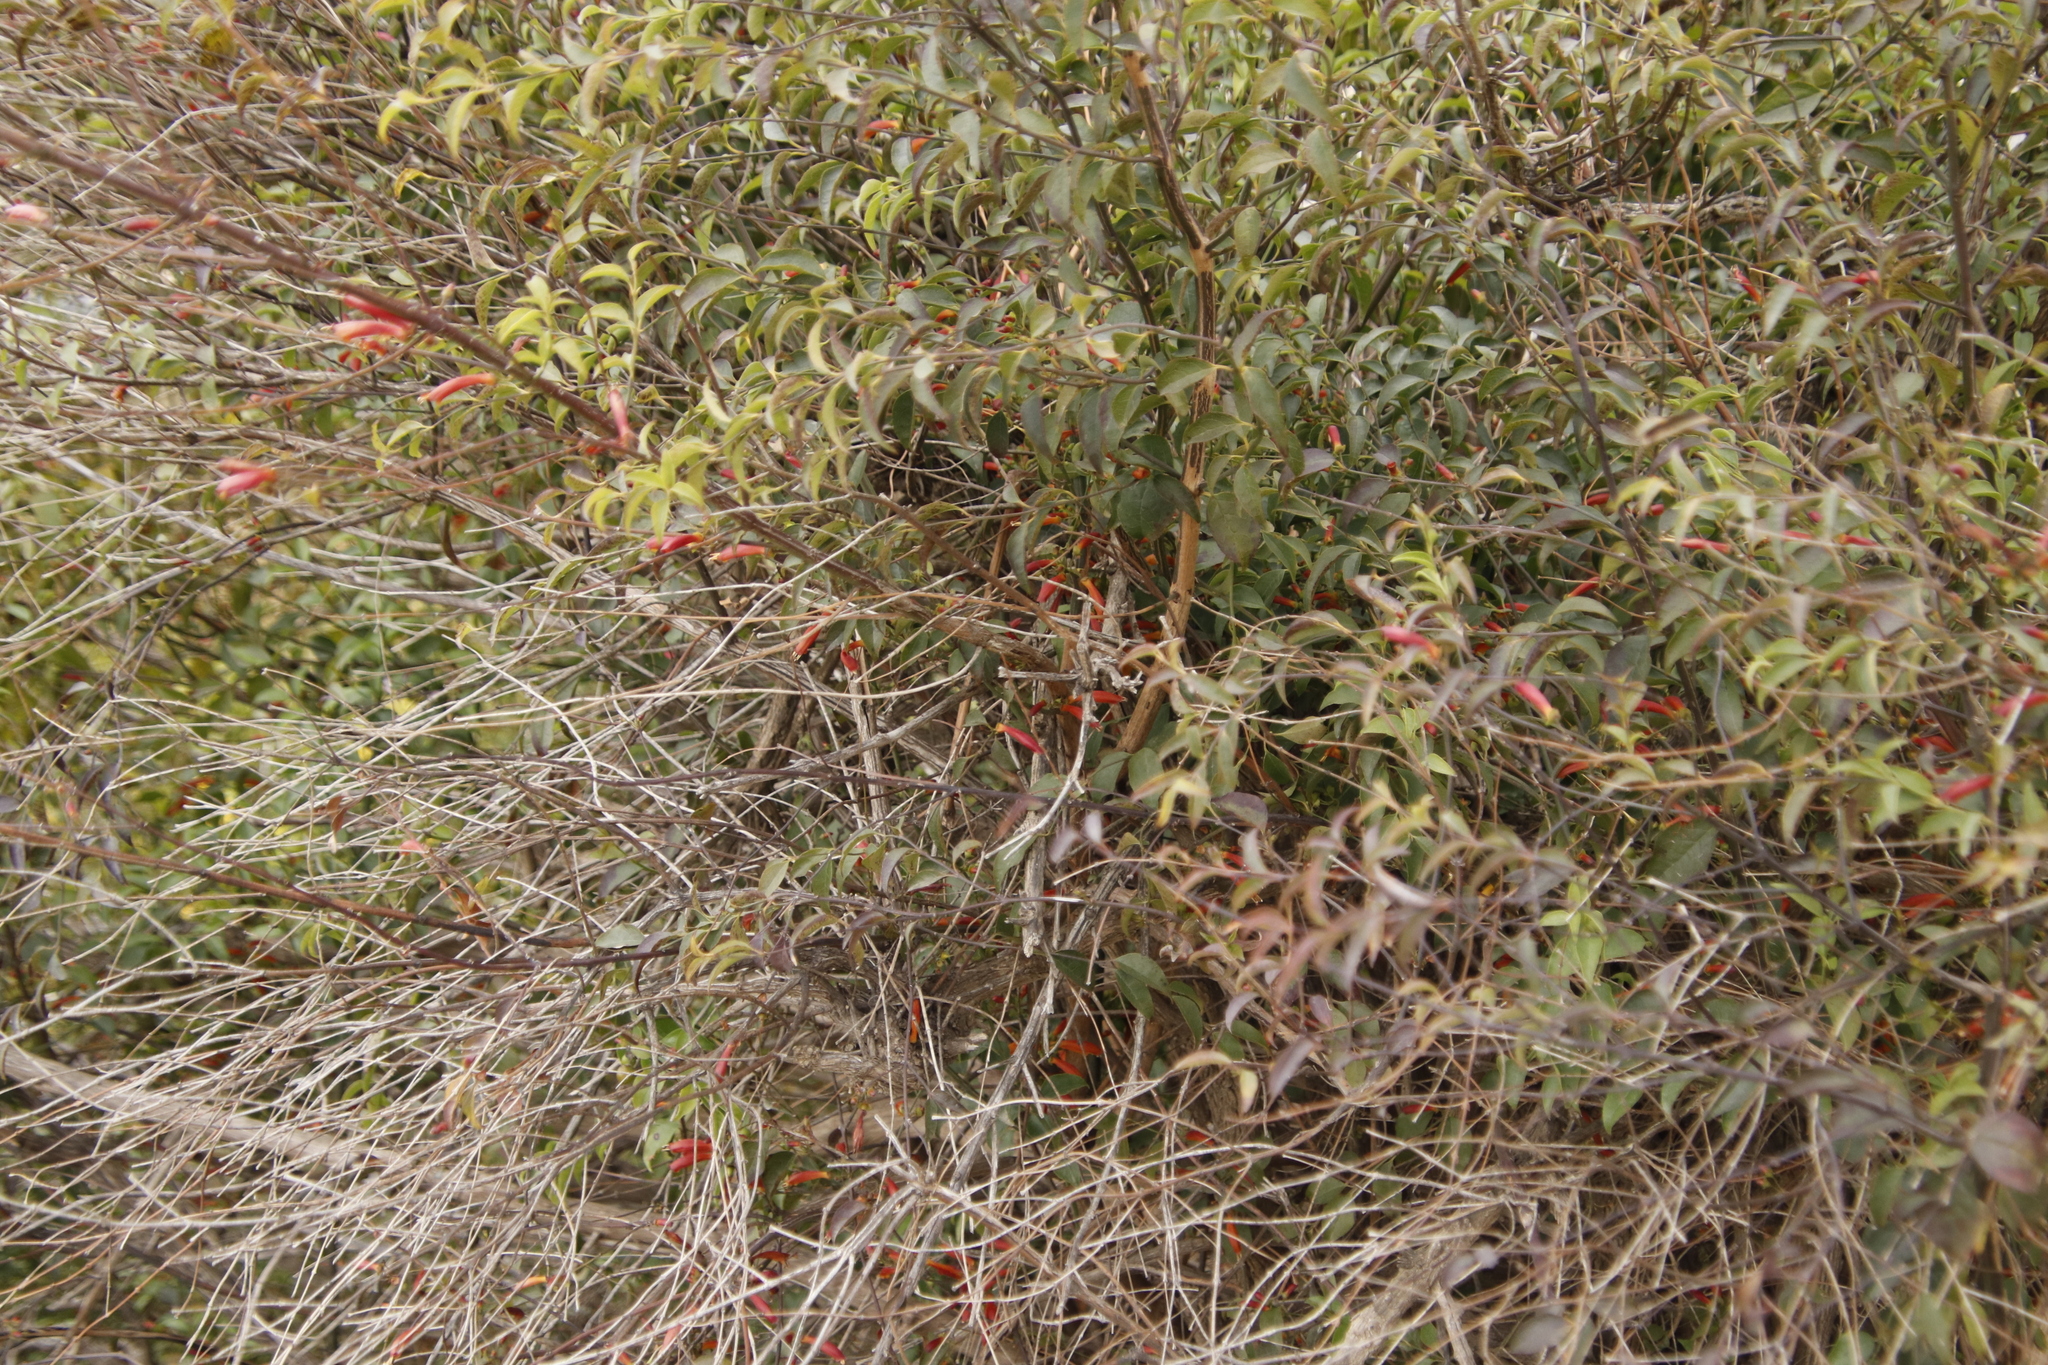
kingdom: Plantae
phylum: Tracheophyta
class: Magnoliopsida
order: Lamiales
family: Stilbaceae
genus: Halleria
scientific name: Halleria lucida
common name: Tree fuschia
